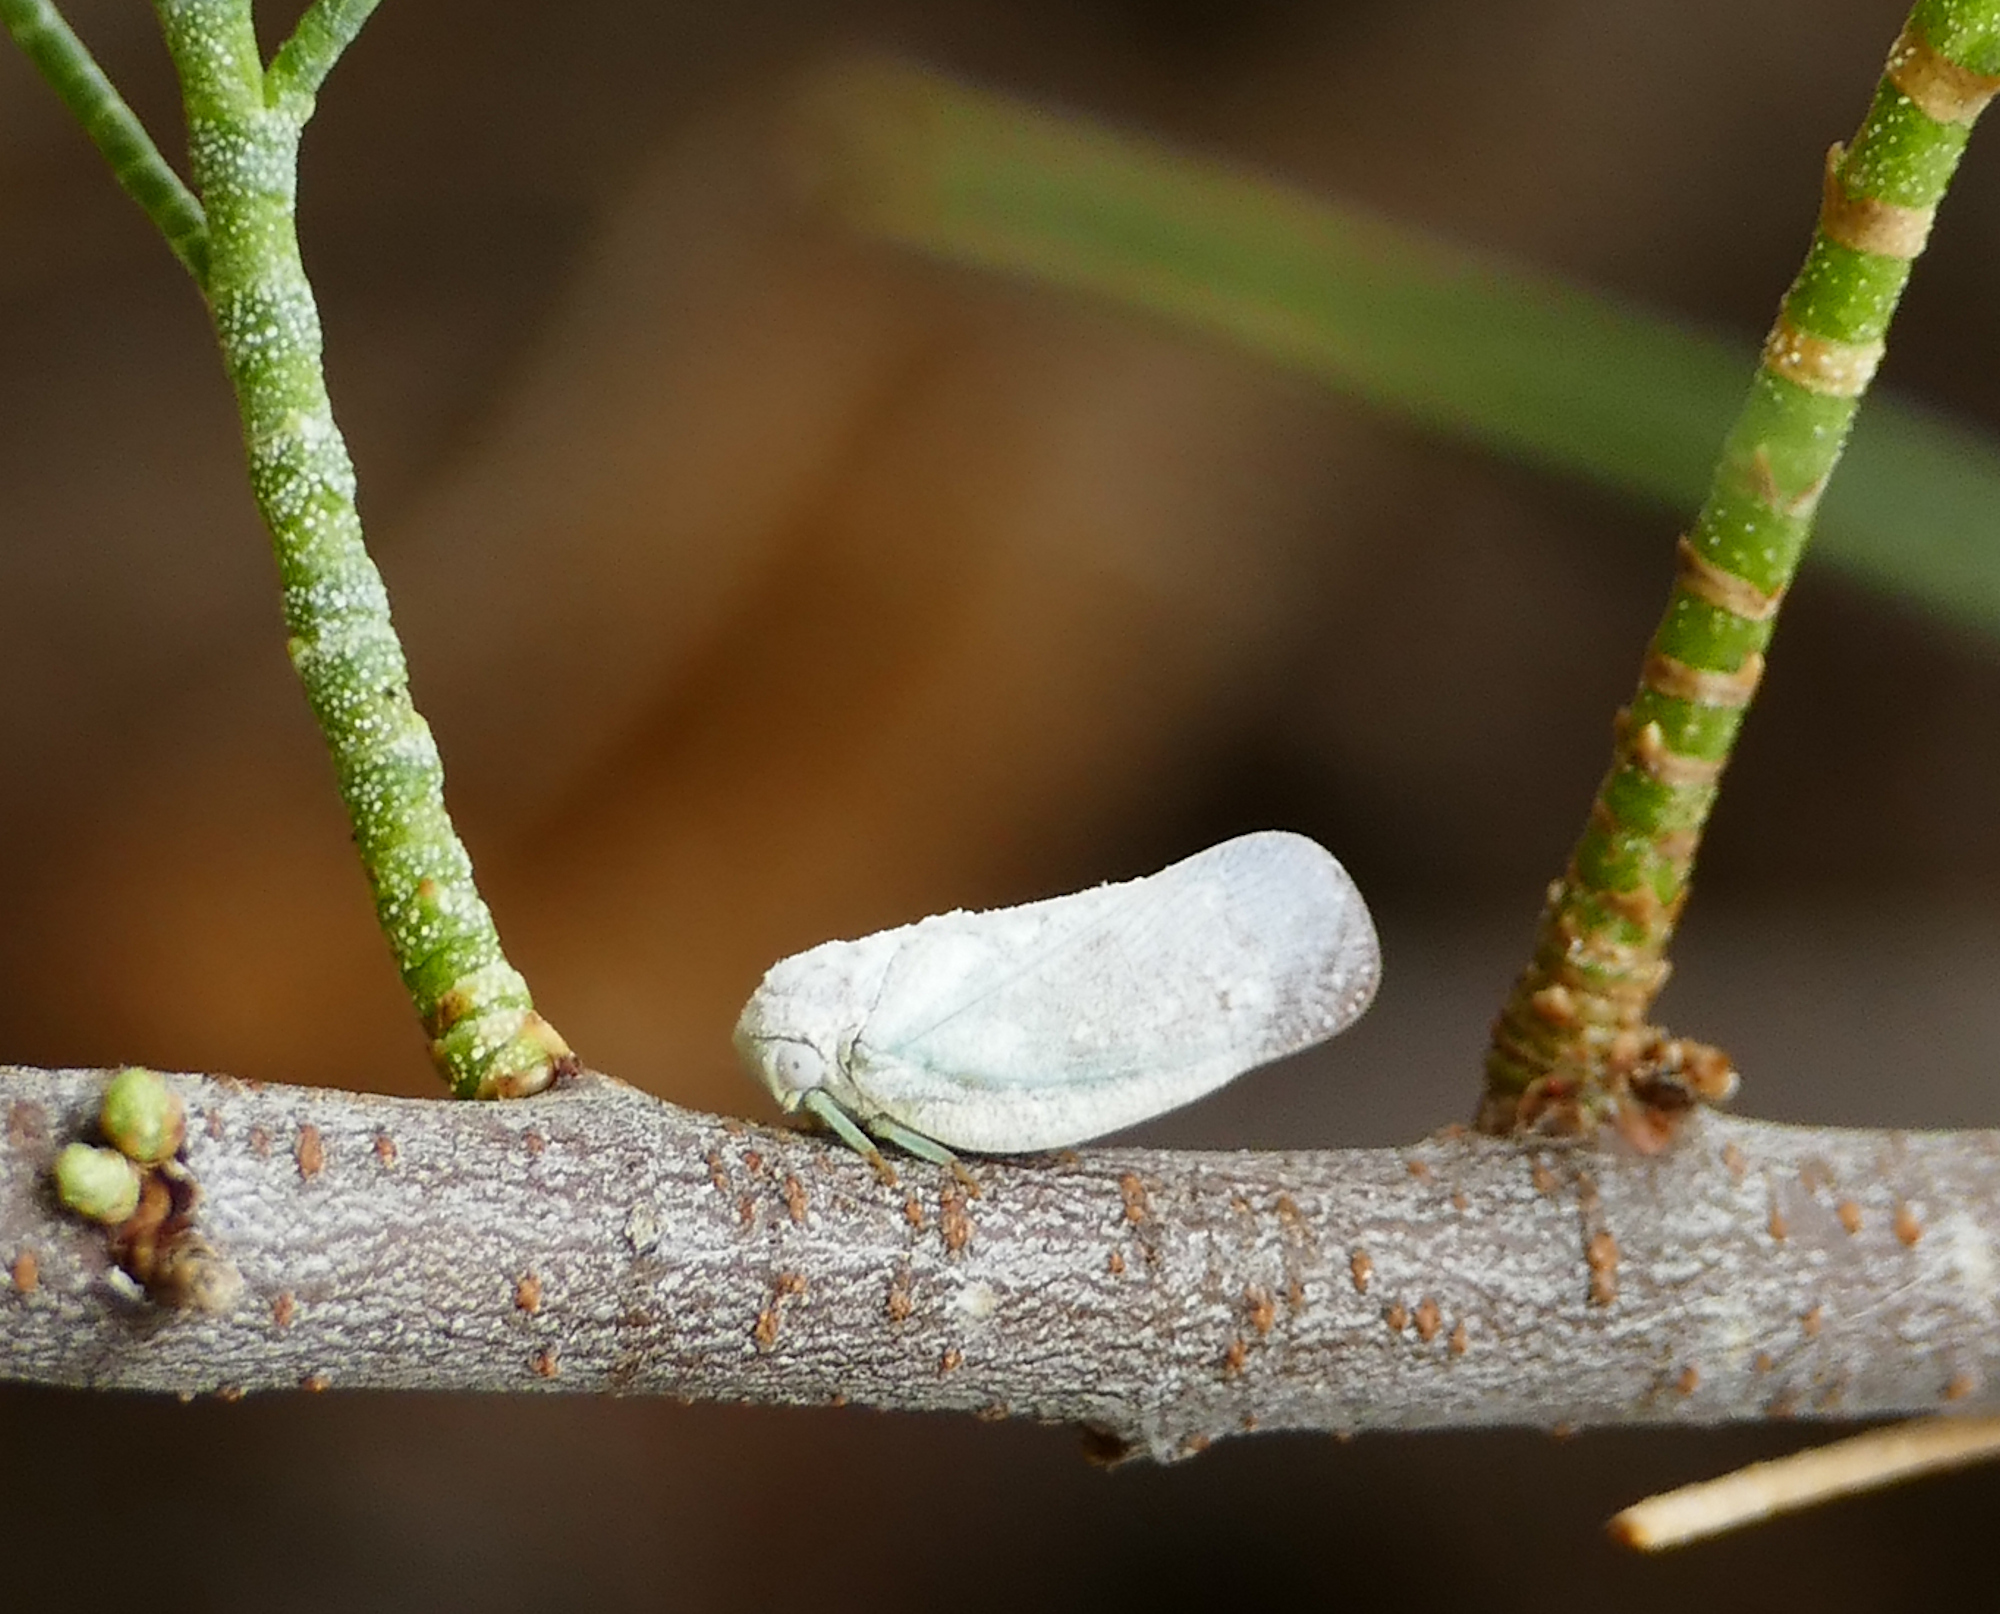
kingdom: Animalia
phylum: Arthropoda
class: Insecta
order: Hemiptera
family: Flatidae
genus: Flatormenis
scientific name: Flatormenis saucia
